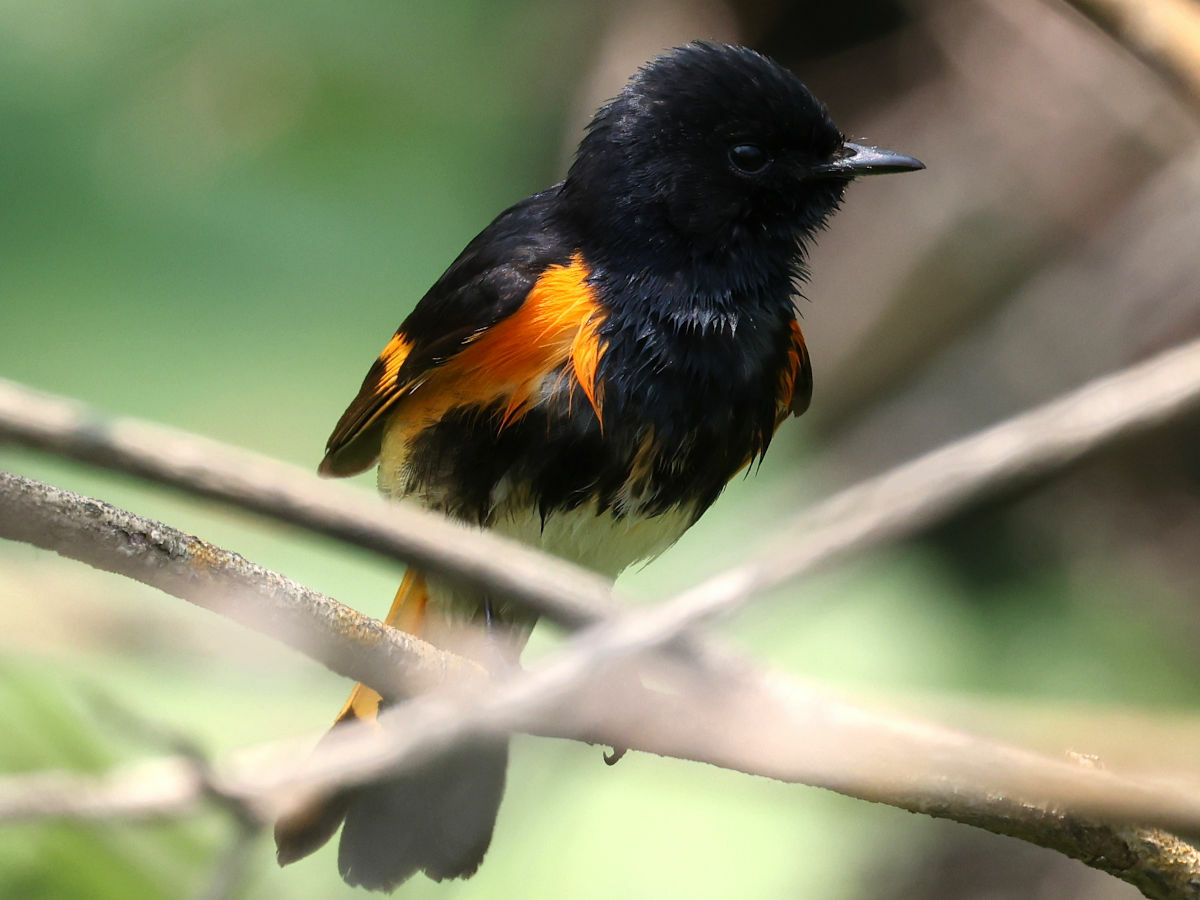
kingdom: Animalia
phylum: Chordata
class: Aves
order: Passeriformes
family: Parulidae
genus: Setophaga
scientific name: Setophaga ruticilla
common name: American redstart
